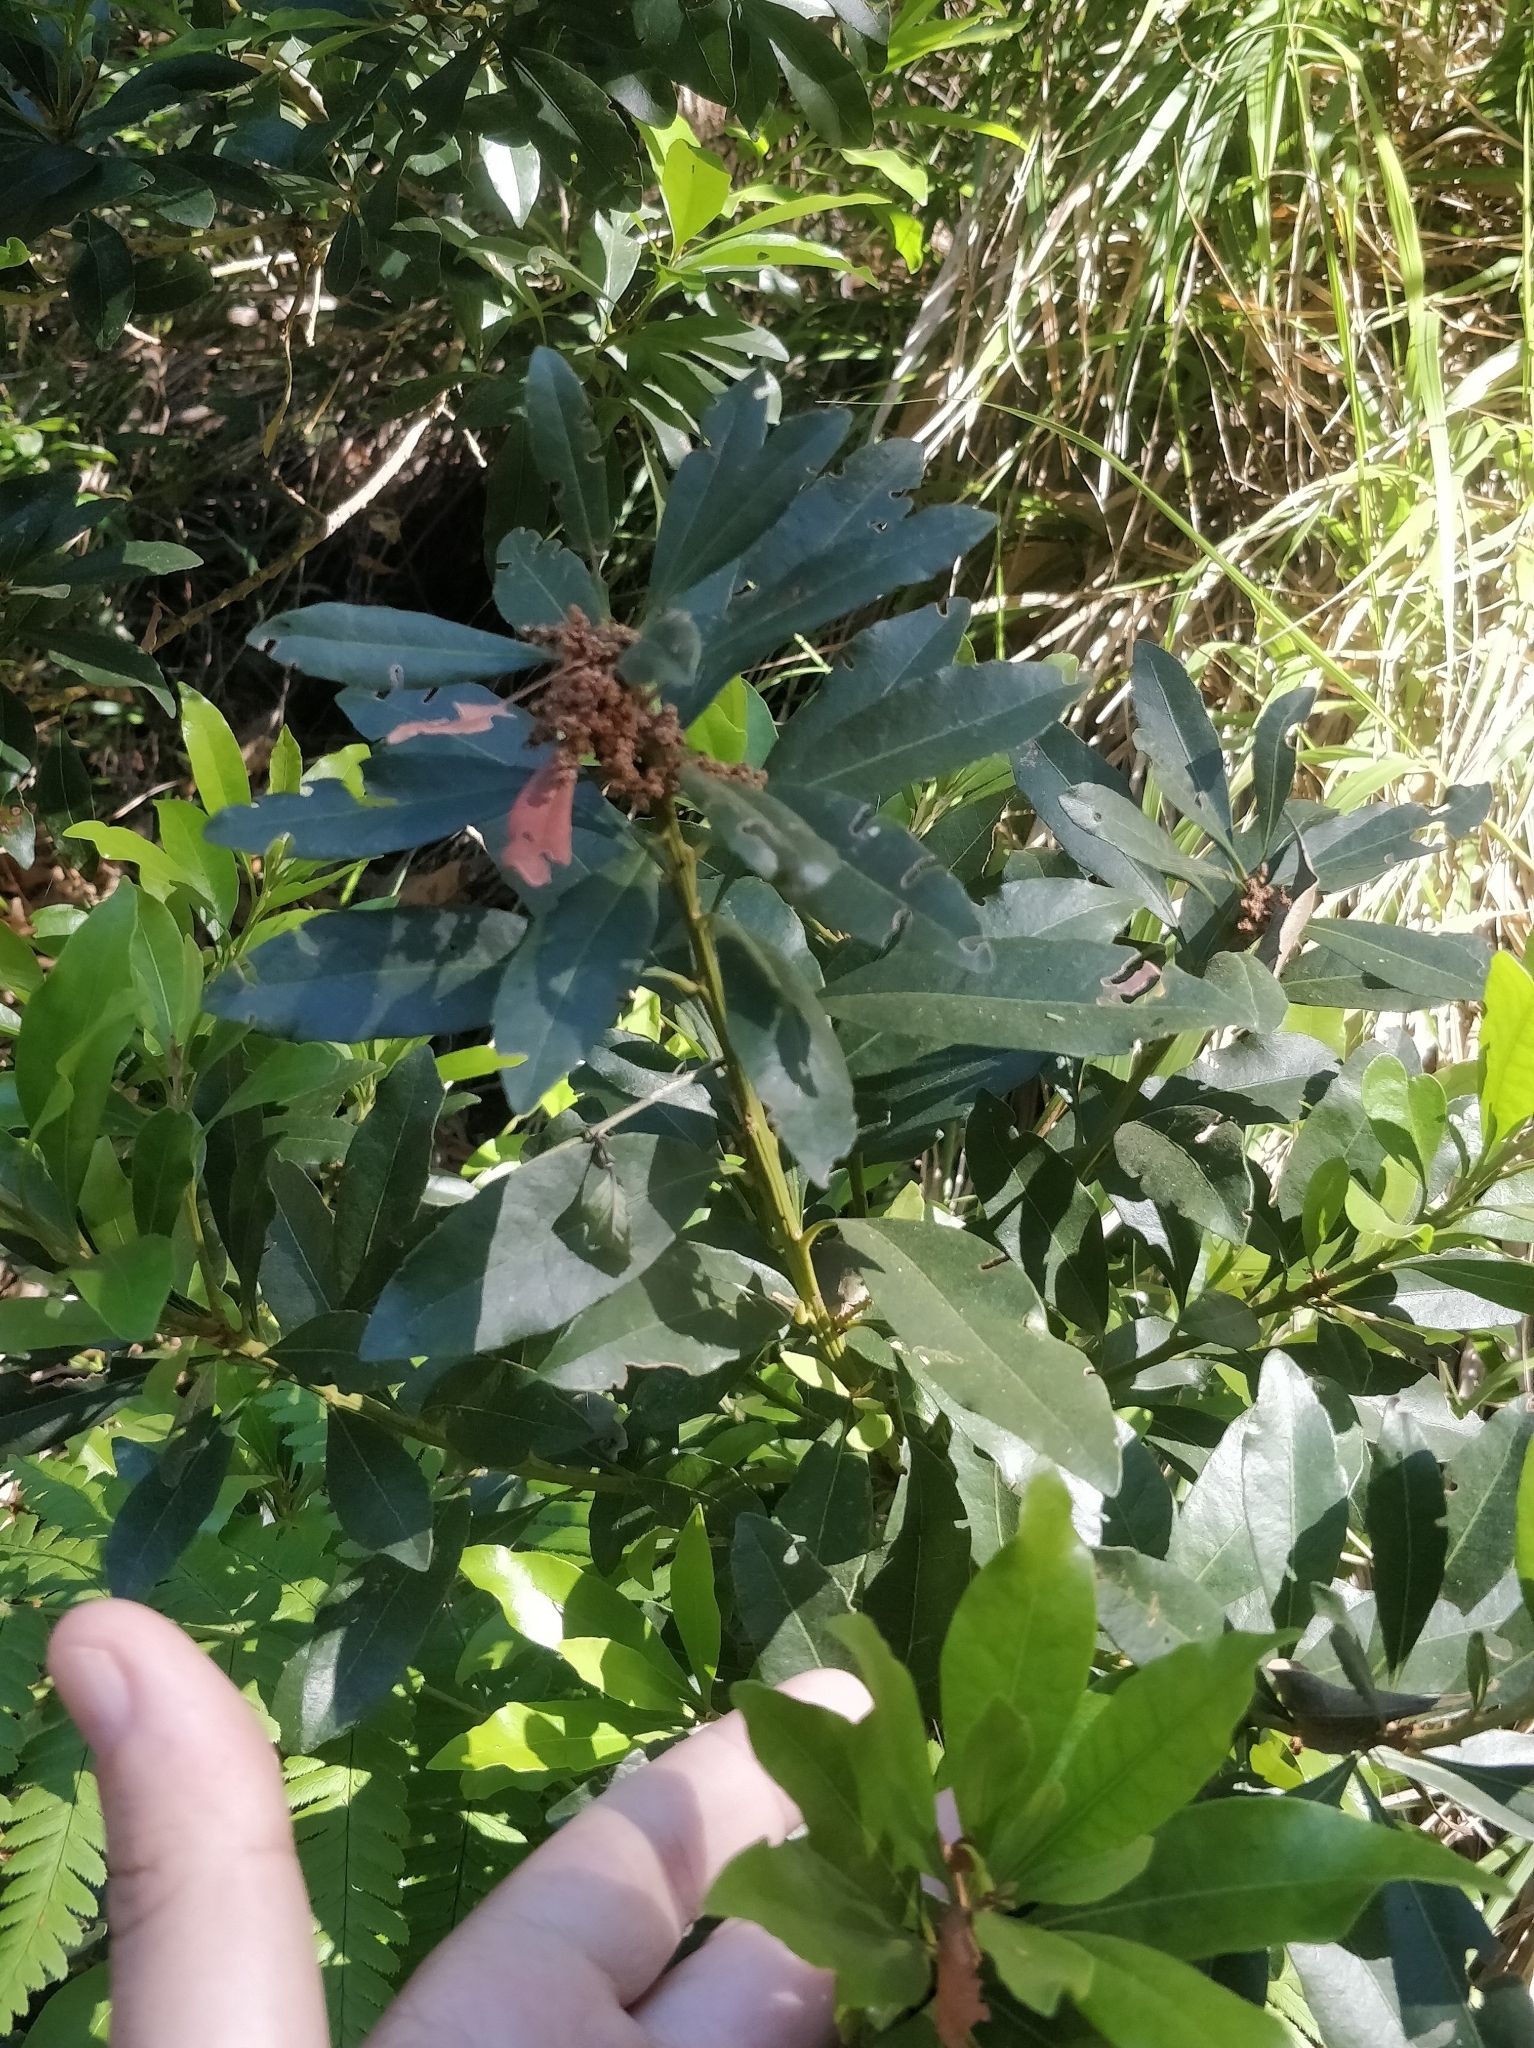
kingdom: Plantae
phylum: Tracheophyta
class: Magnoliopsida
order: Fagales
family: Myricaceae
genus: Morella
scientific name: Morella faya
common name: Firetree
